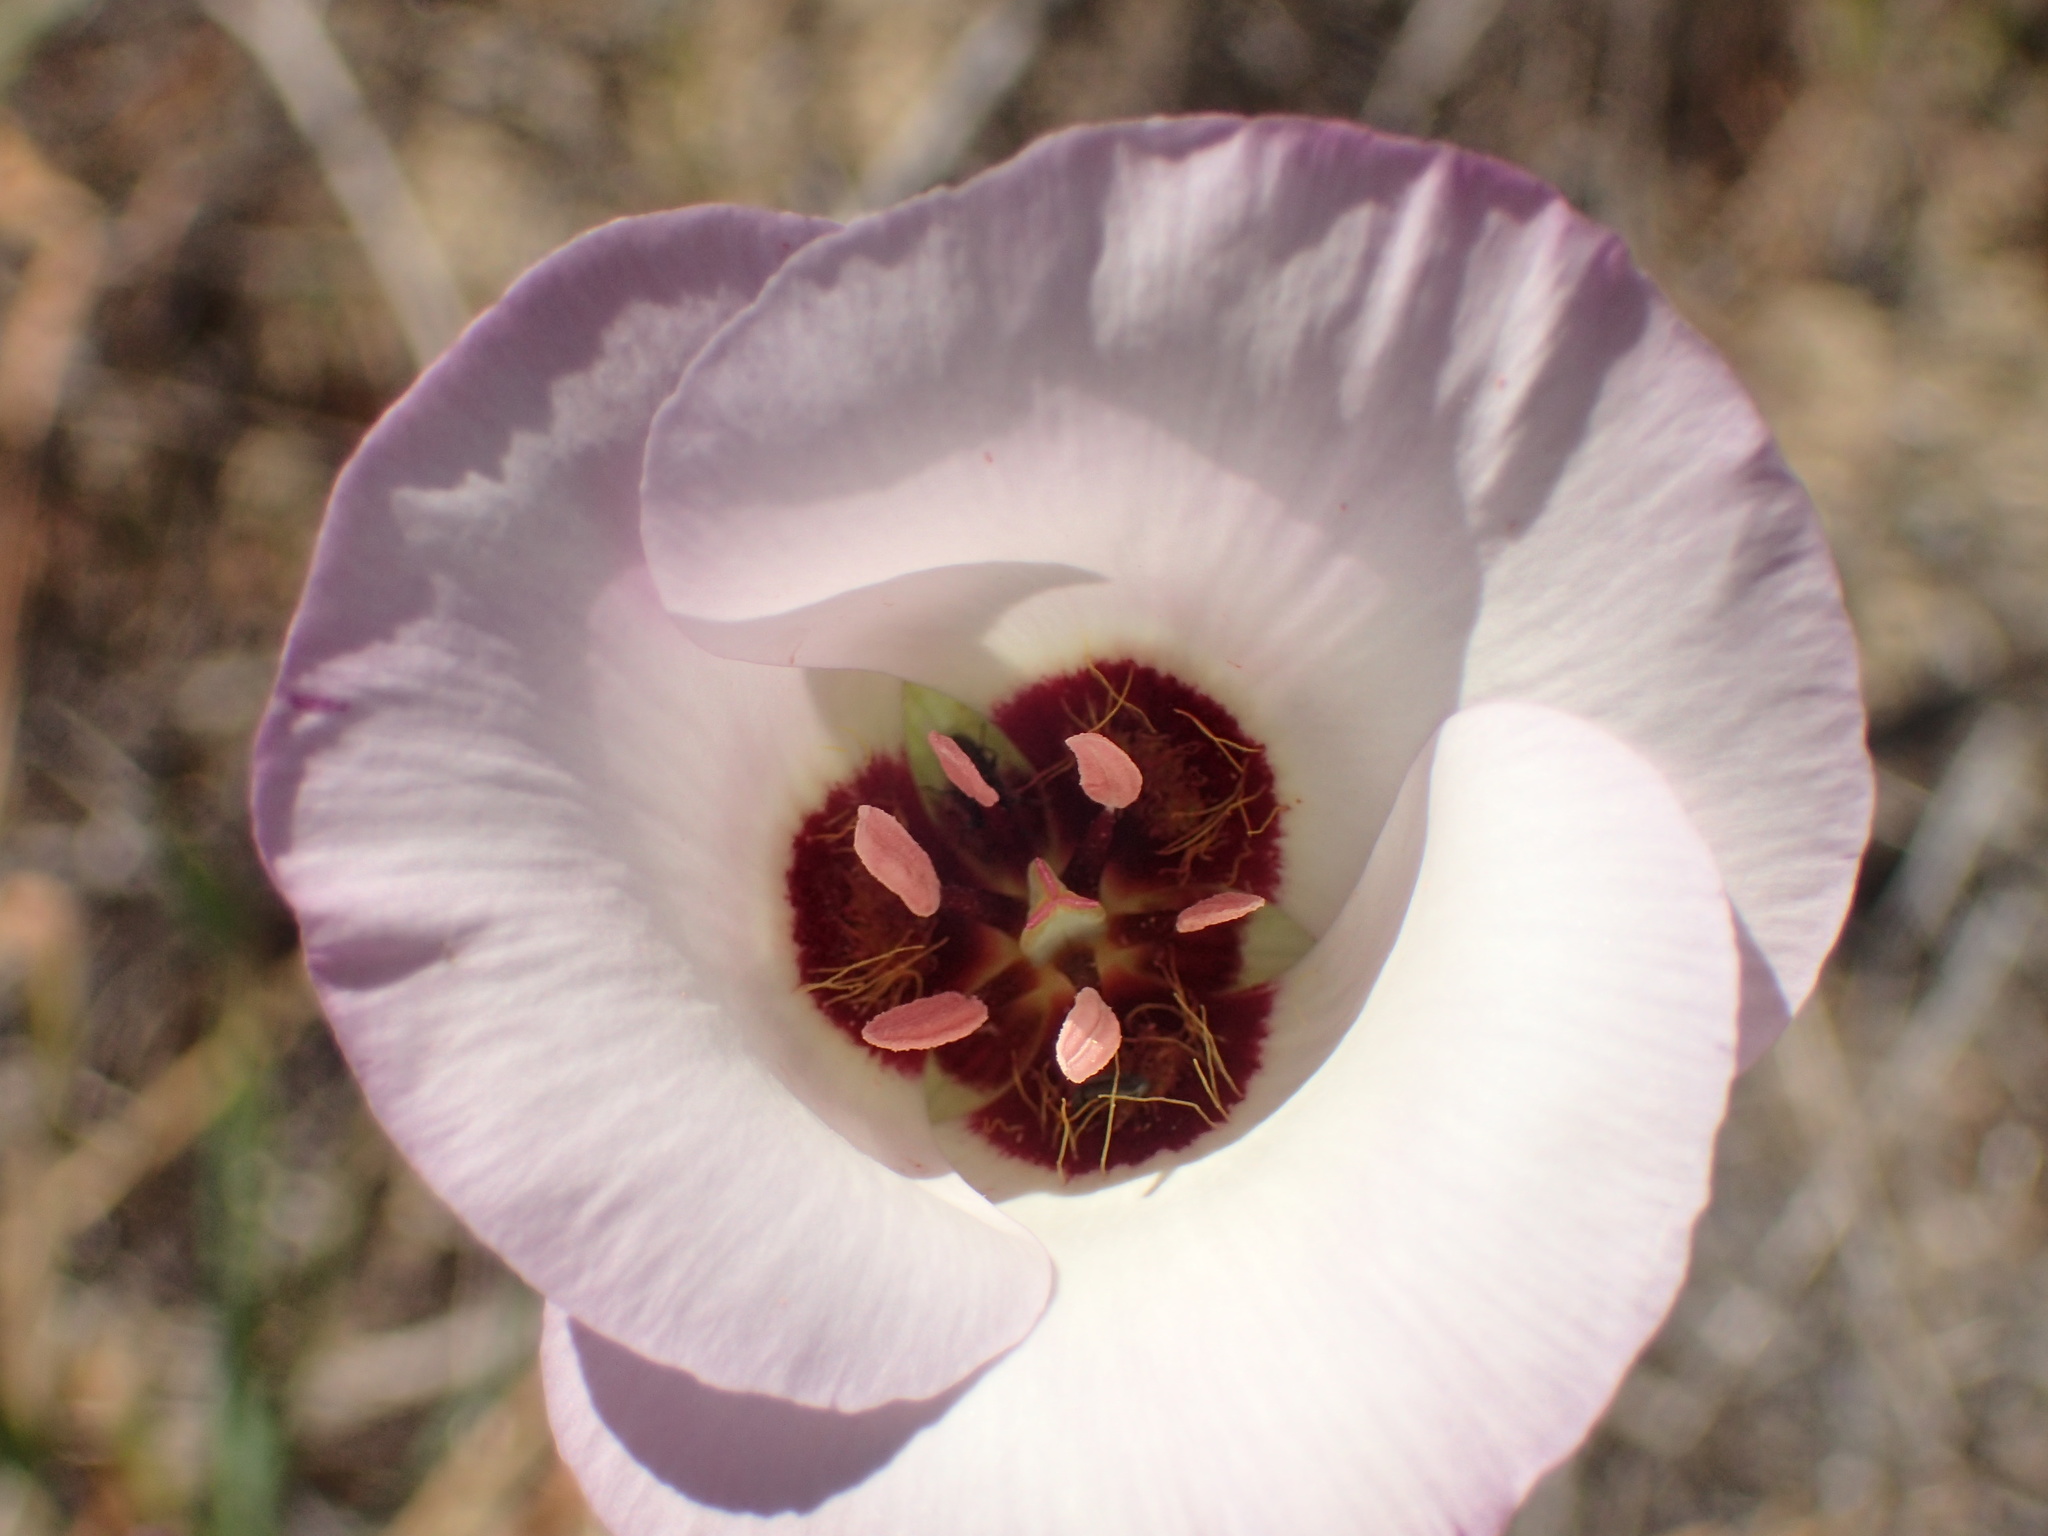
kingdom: Plantae
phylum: Tracheophyta
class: Liliopsida
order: Liliales
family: Liliaceae
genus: Calochortus
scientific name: Calochortus catalinae
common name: Catalina mariposa-lily
